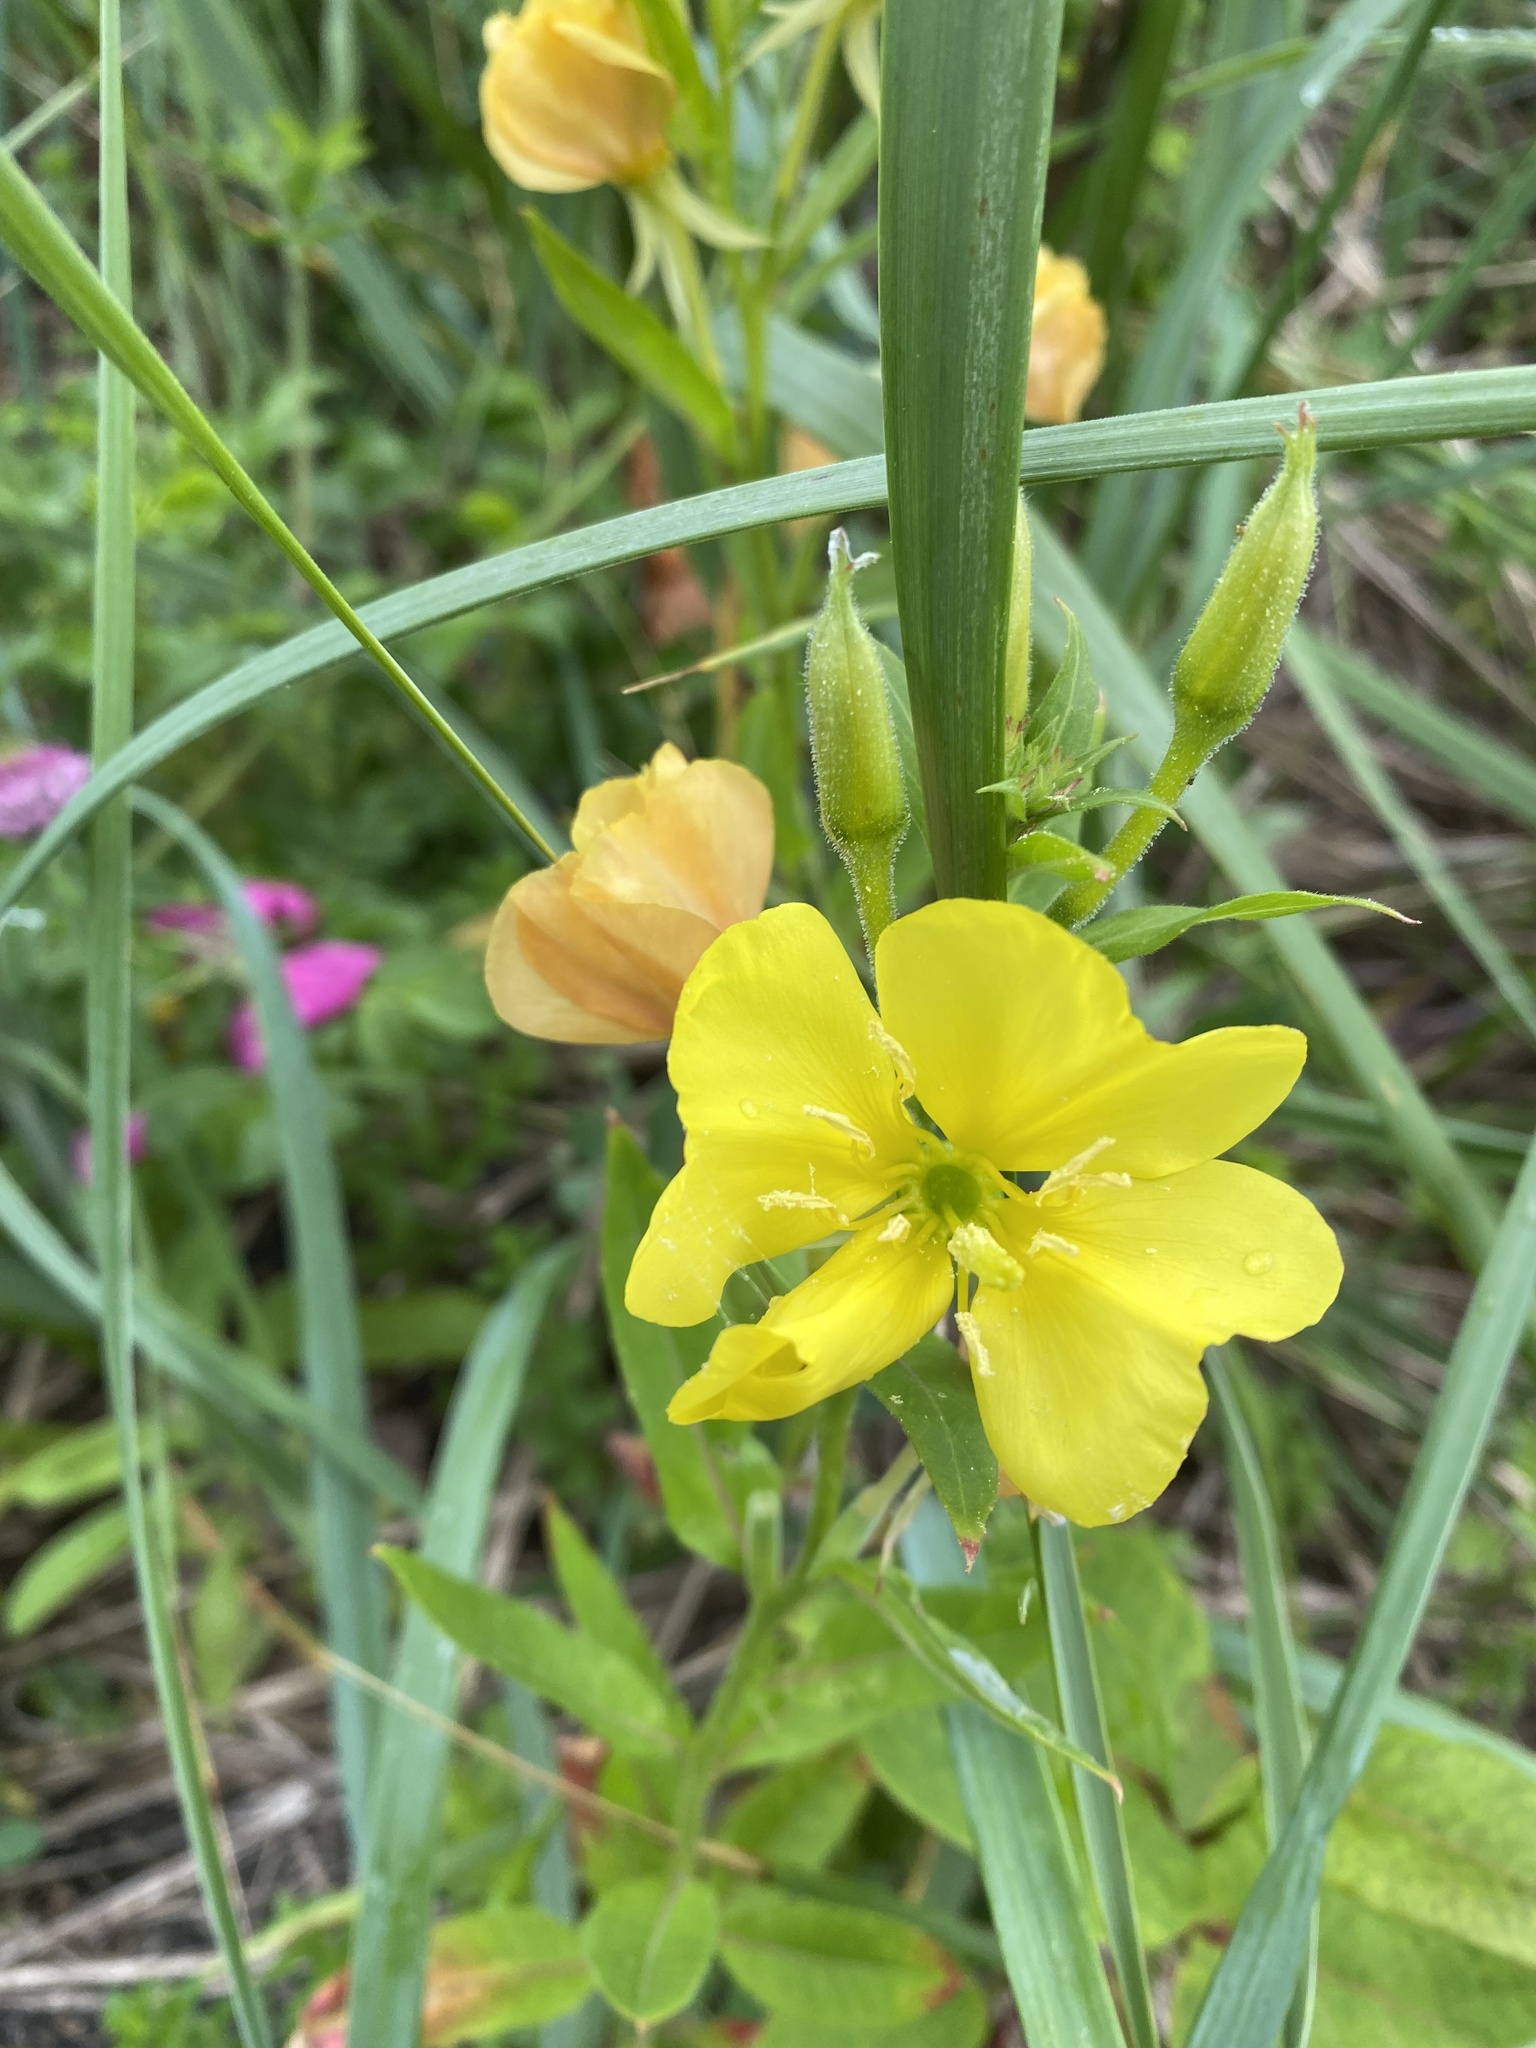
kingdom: Plantae
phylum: Tracheophyta
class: Magnoliopsida
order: Myrtales
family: Onagraceae
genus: Oenothera
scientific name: Oenothera biennis
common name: Common evening-primrose
